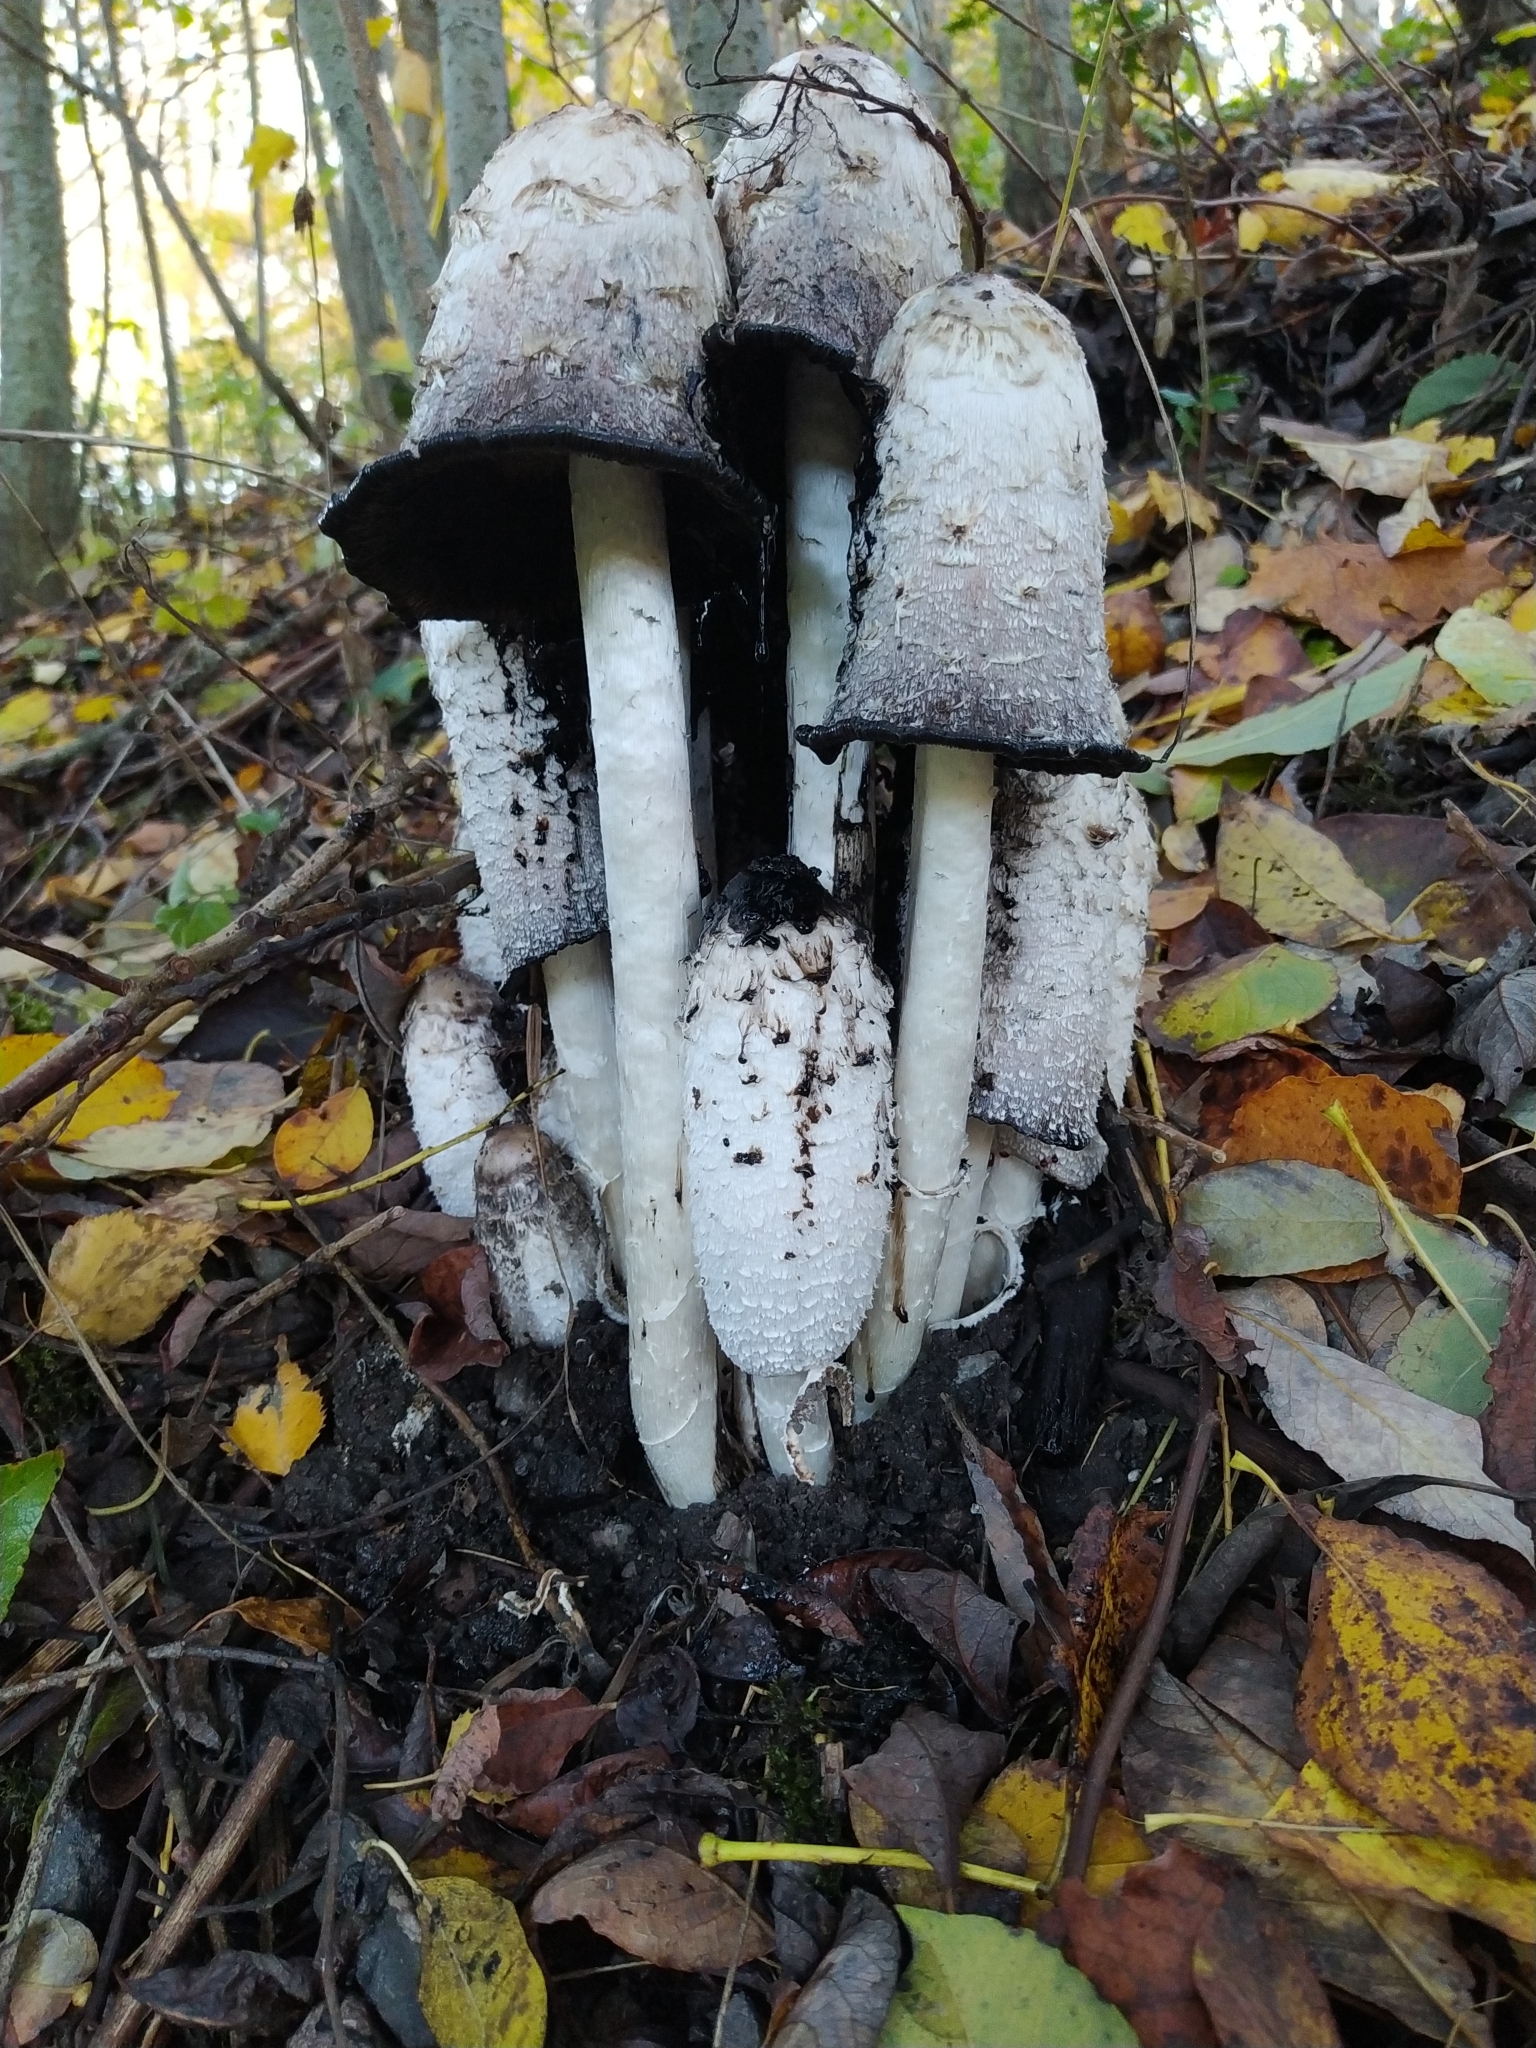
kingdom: Fungi
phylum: Basidiomycota
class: Agaricomycetes
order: Agaricales
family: Agaricaceae
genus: Coprinus
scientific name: Coprinus comatus
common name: Lawyer's wig
